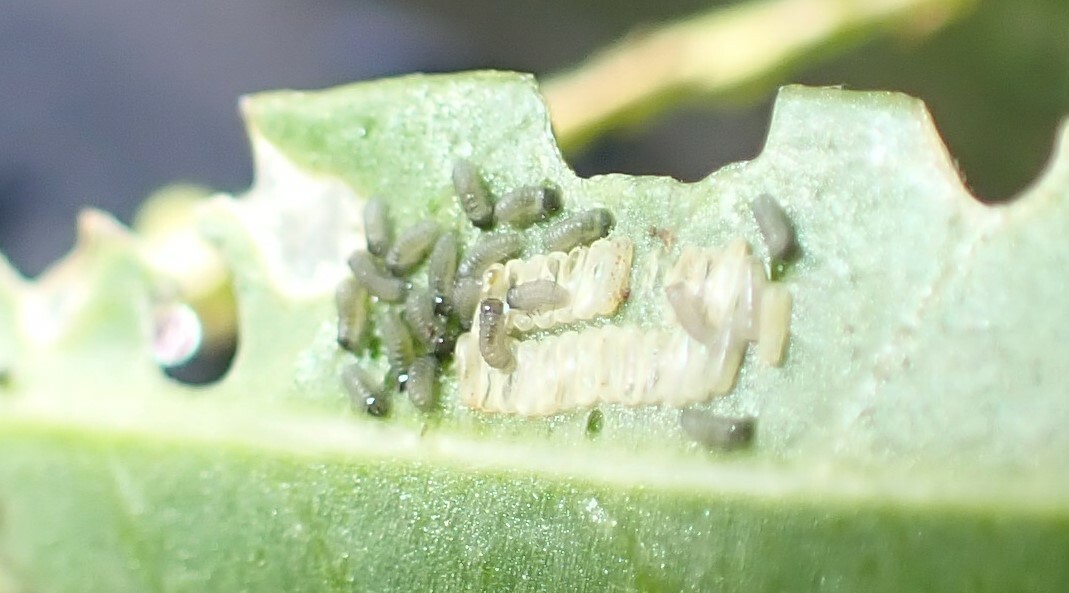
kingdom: Animalia
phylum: Arthropoda
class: Insecta
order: Coleoptera
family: Chrysomelidae
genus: Agasicles
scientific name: Agasicles hygrophila
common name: Alligatorweed flea beetle
